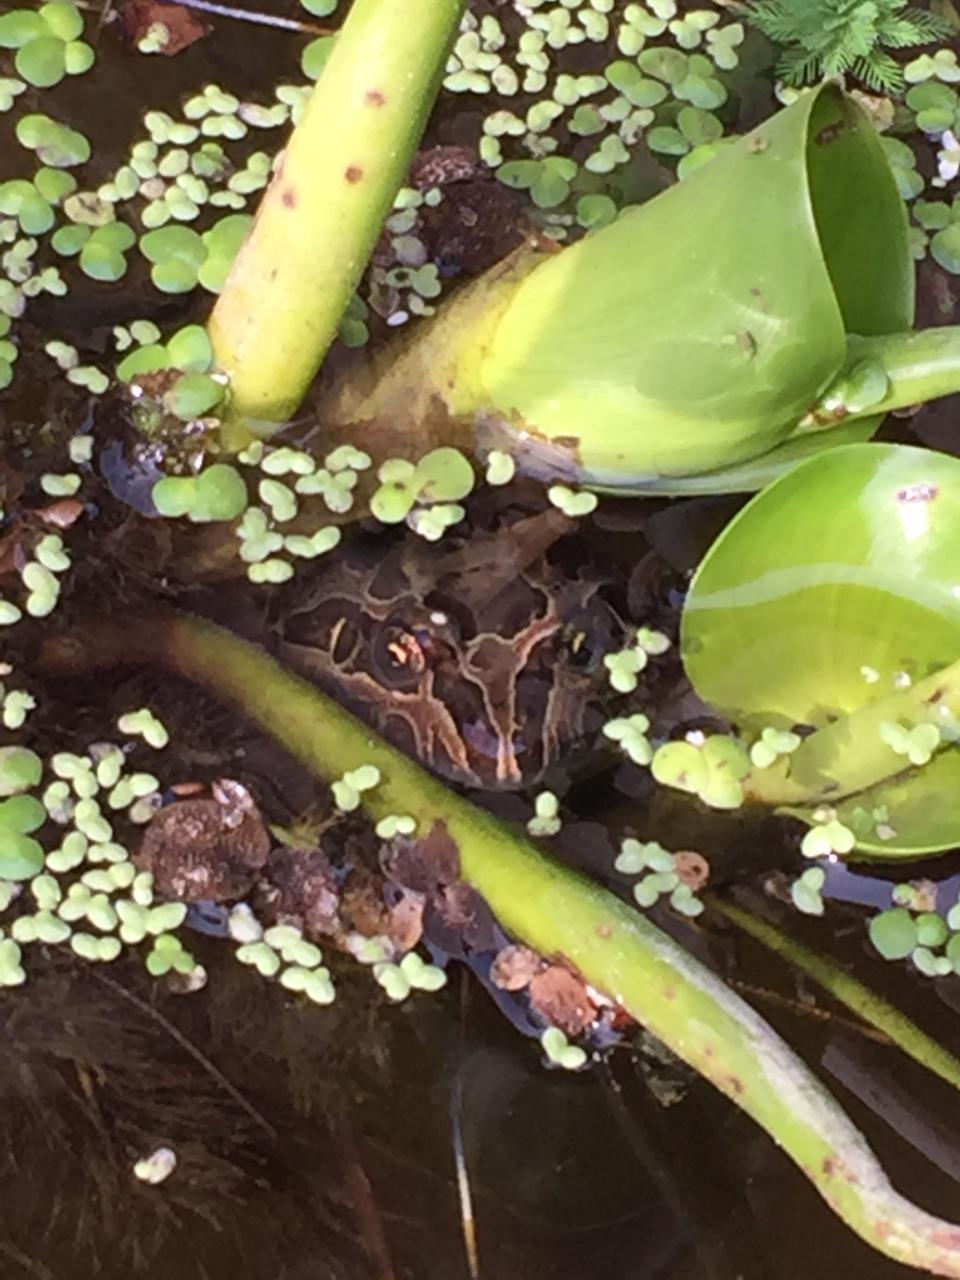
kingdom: Animalia
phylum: Chordata
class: Amphibia
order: Anura
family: Leptodactylidae
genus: Leptodactylus
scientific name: Leptodactylus luctator
